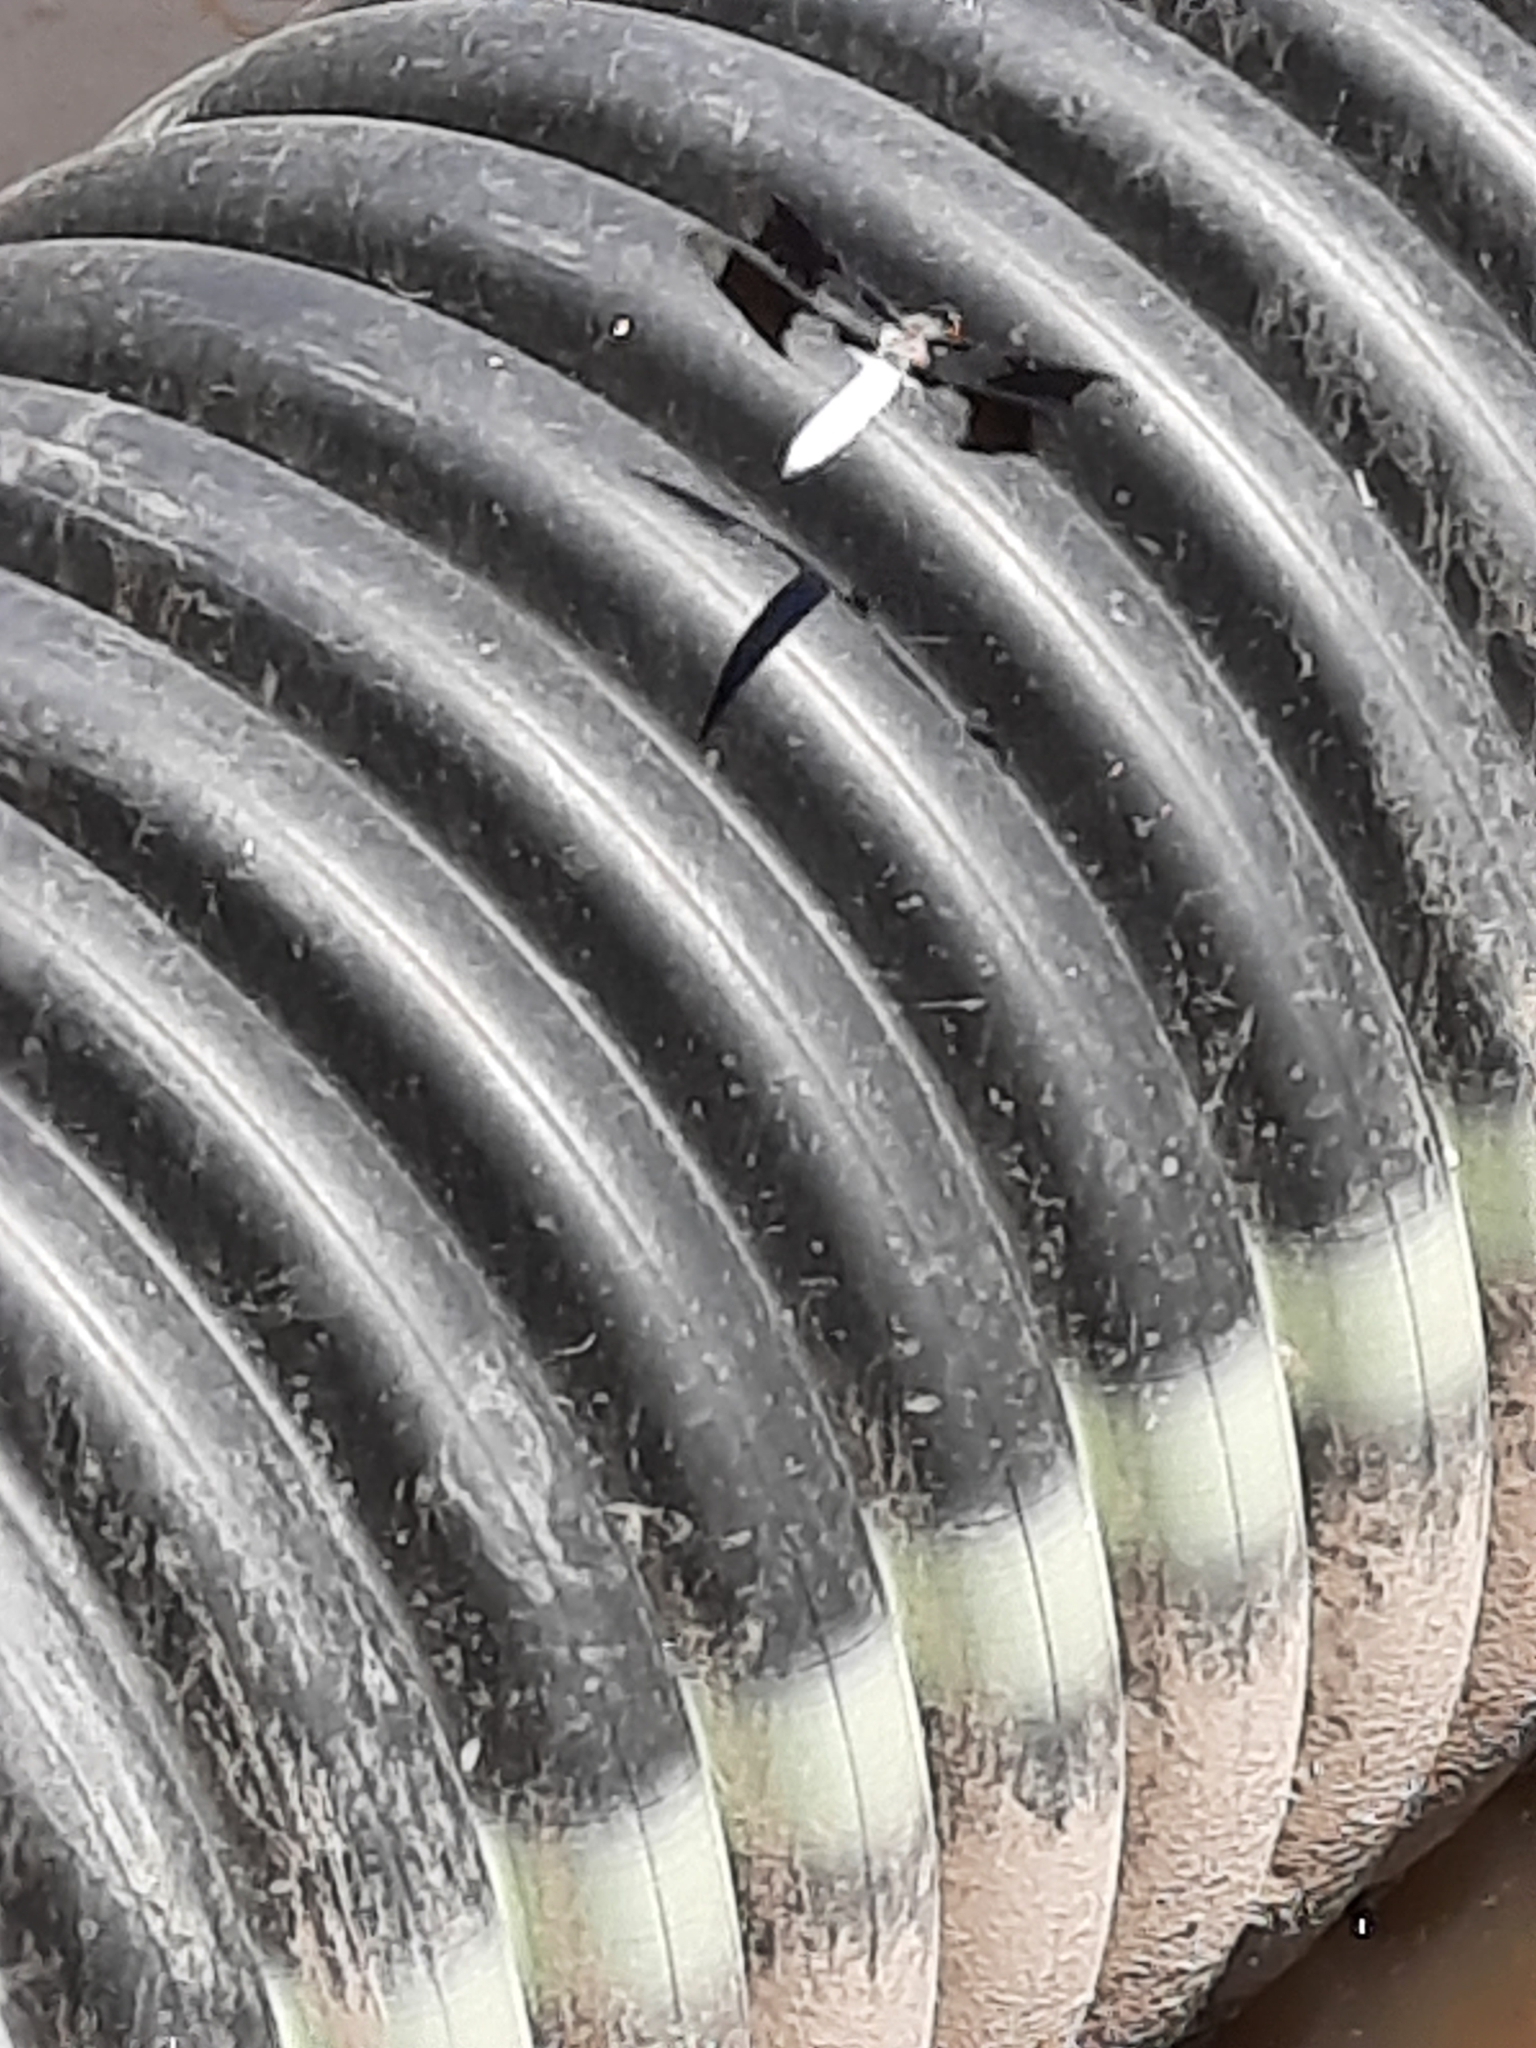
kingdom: Animalia
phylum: Arthropoda
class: Insecta
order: Odonata
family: Libellulidae
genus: Plathemis
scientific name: Plathemis lydia
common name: Common whitetail
